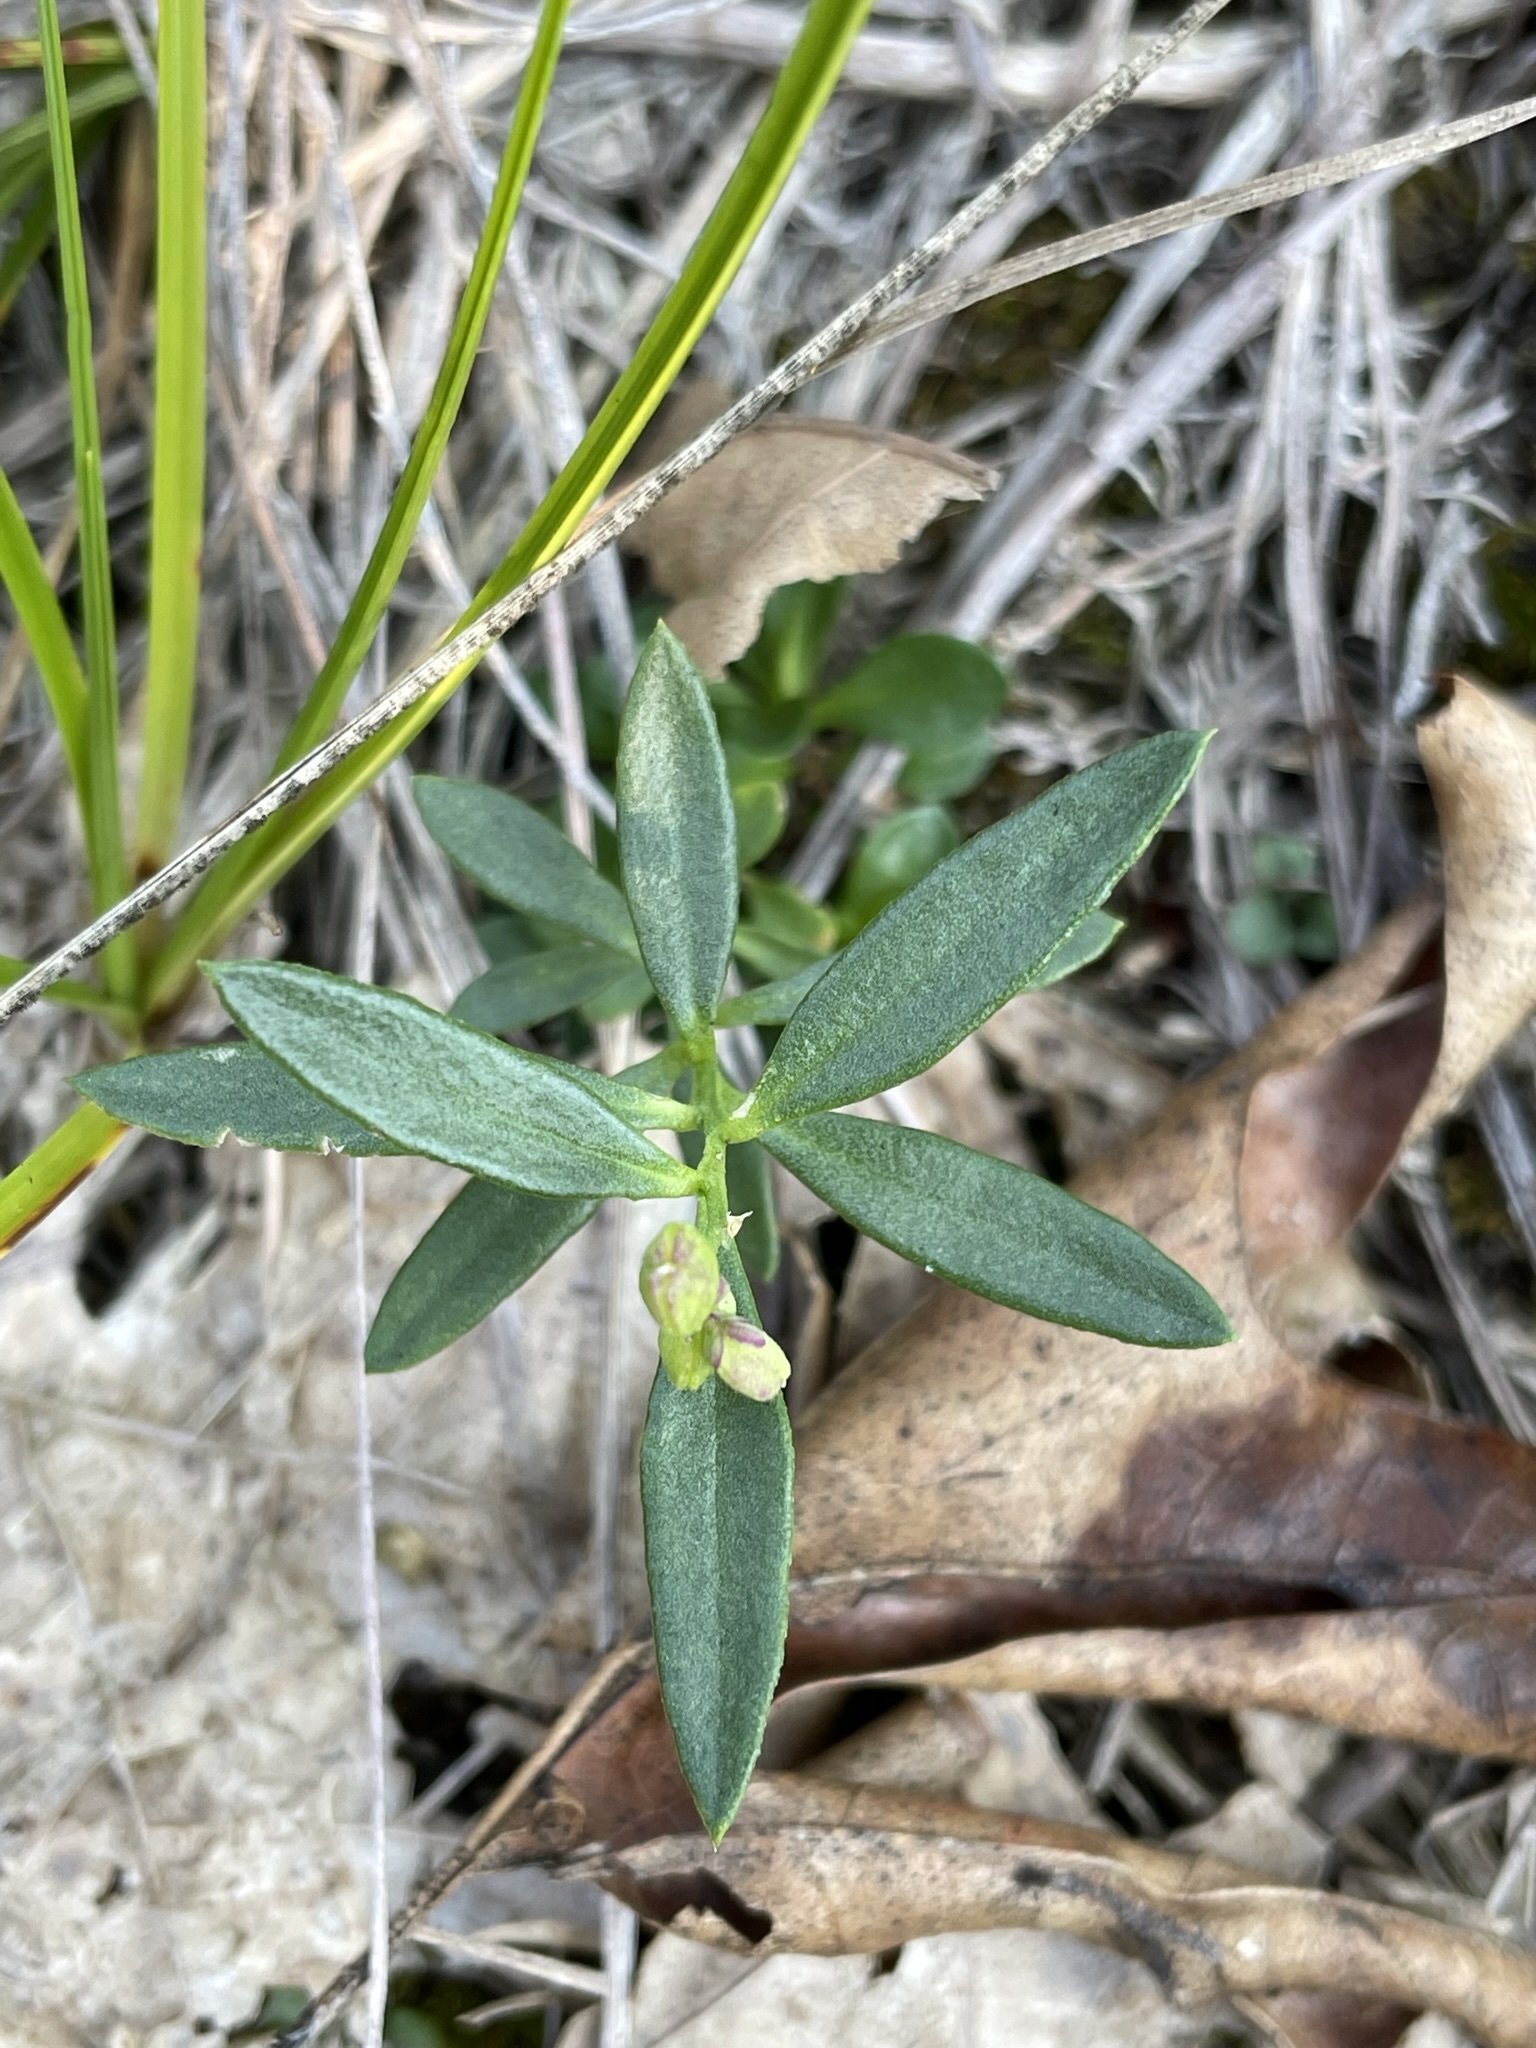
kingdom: Plantae
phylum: Tracheophyta
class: Magnoliopsida
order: Fabales
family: Polygalaceae
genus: Polygala
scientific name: Polygala polygama
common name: Bitter milkwort
